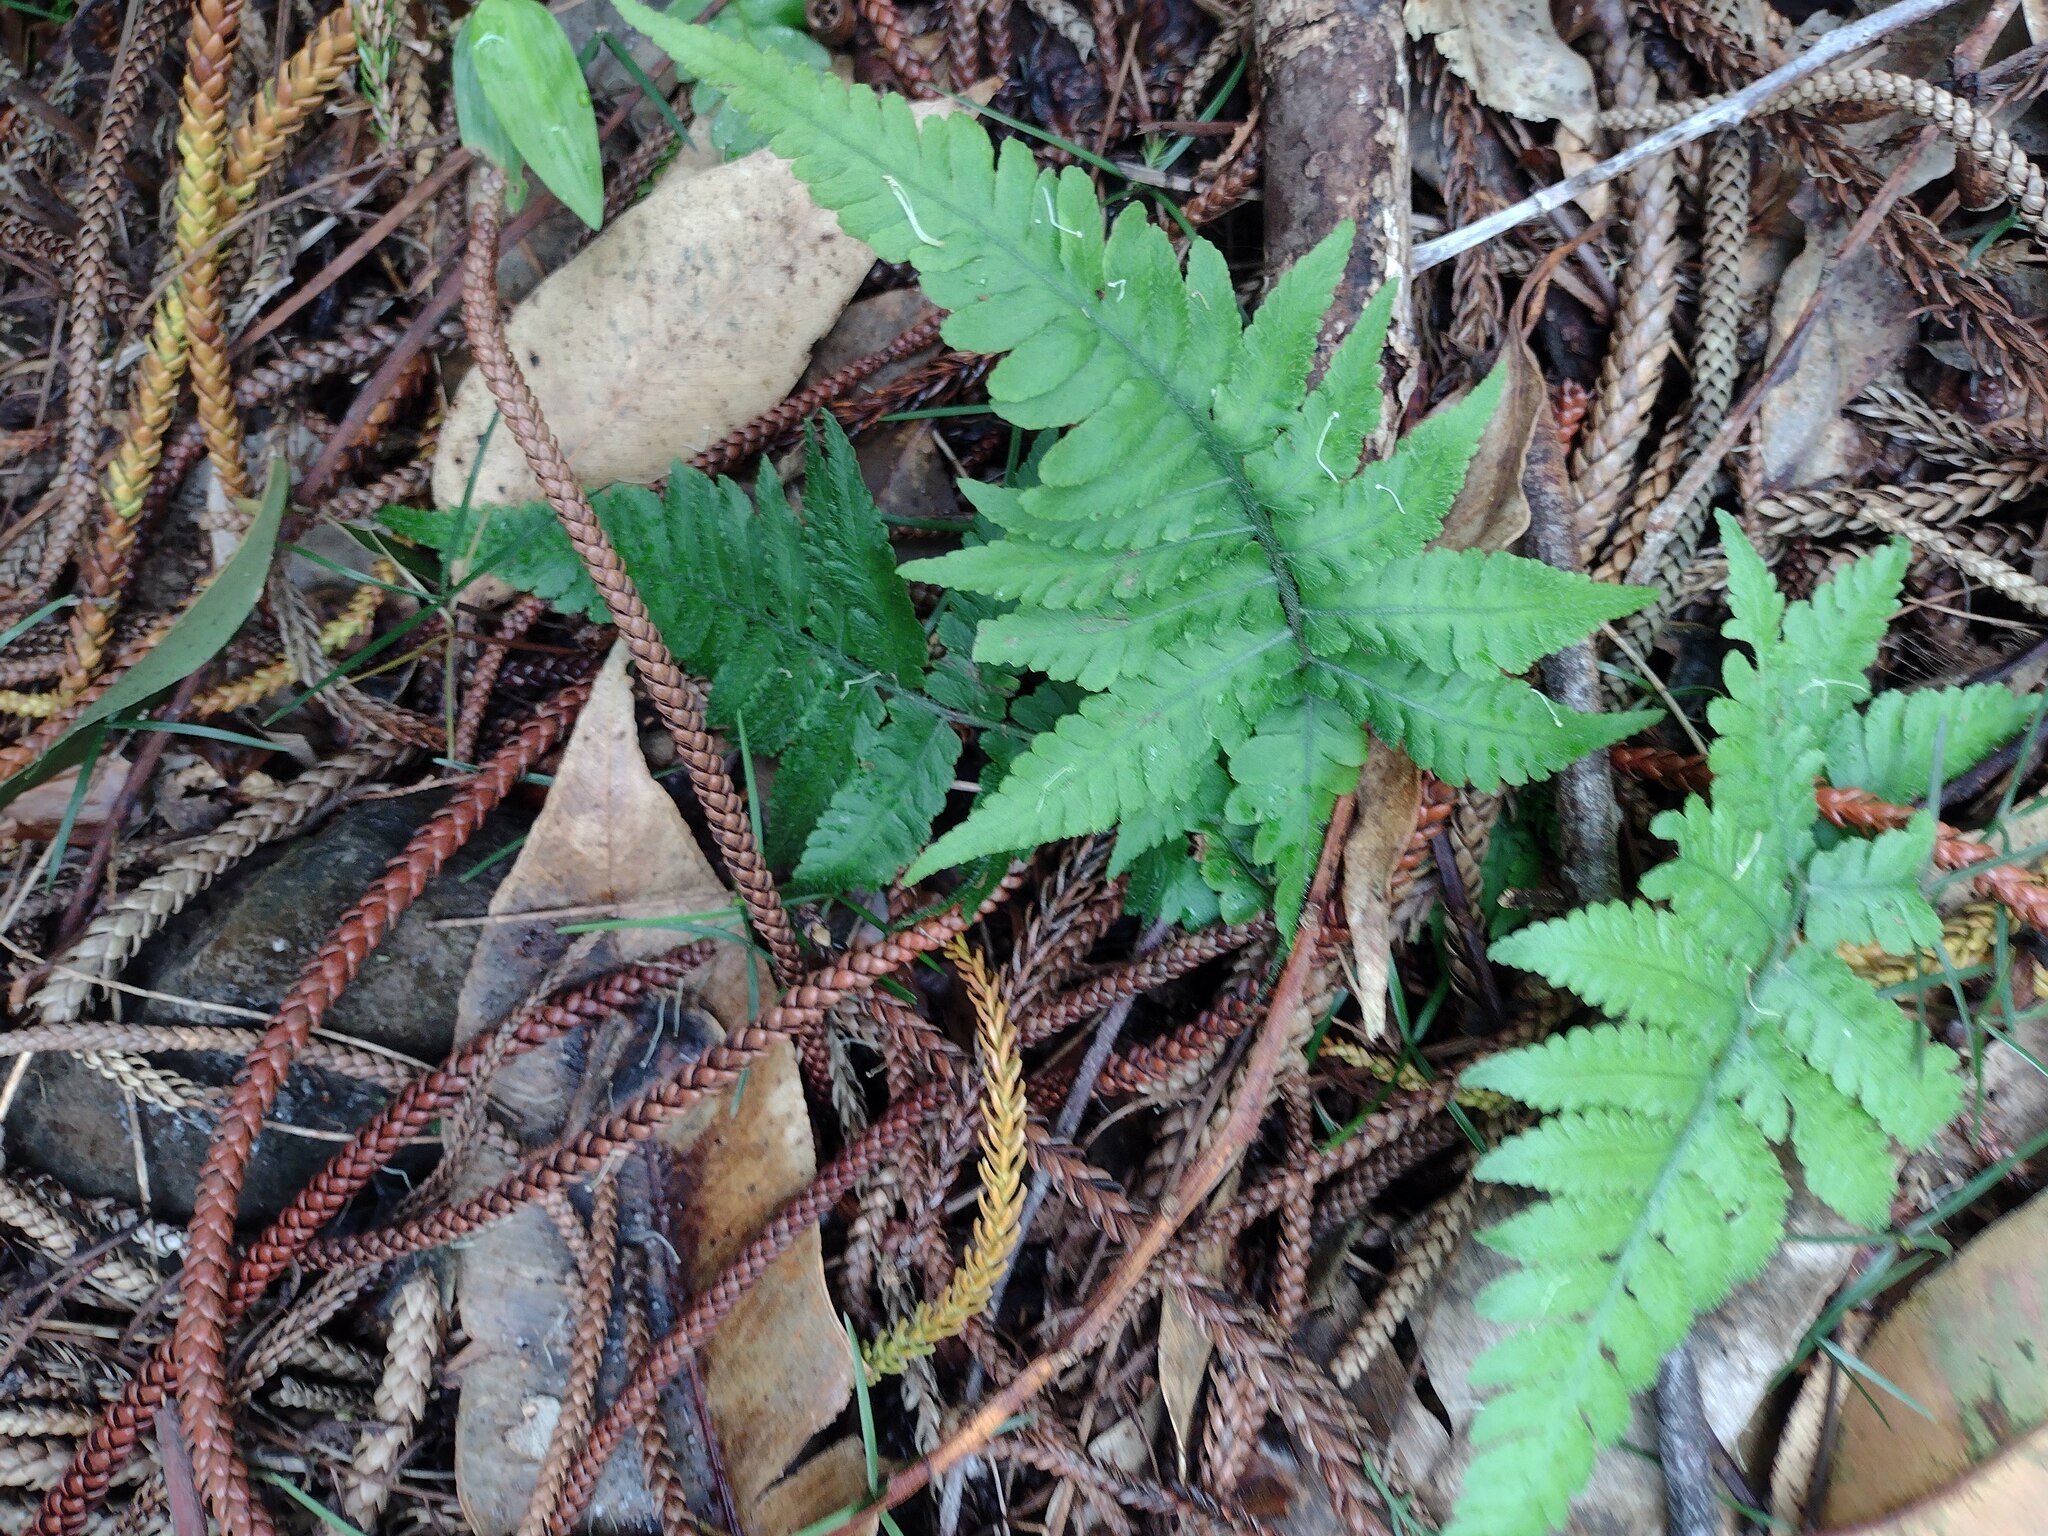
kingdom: Plantae
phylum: Tracheophyta
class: Polypodiopsida
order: Polypodiales
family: Athyriaceae
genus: Deparia
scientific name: Deparia petersenii
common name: Japanese false spleenwort
